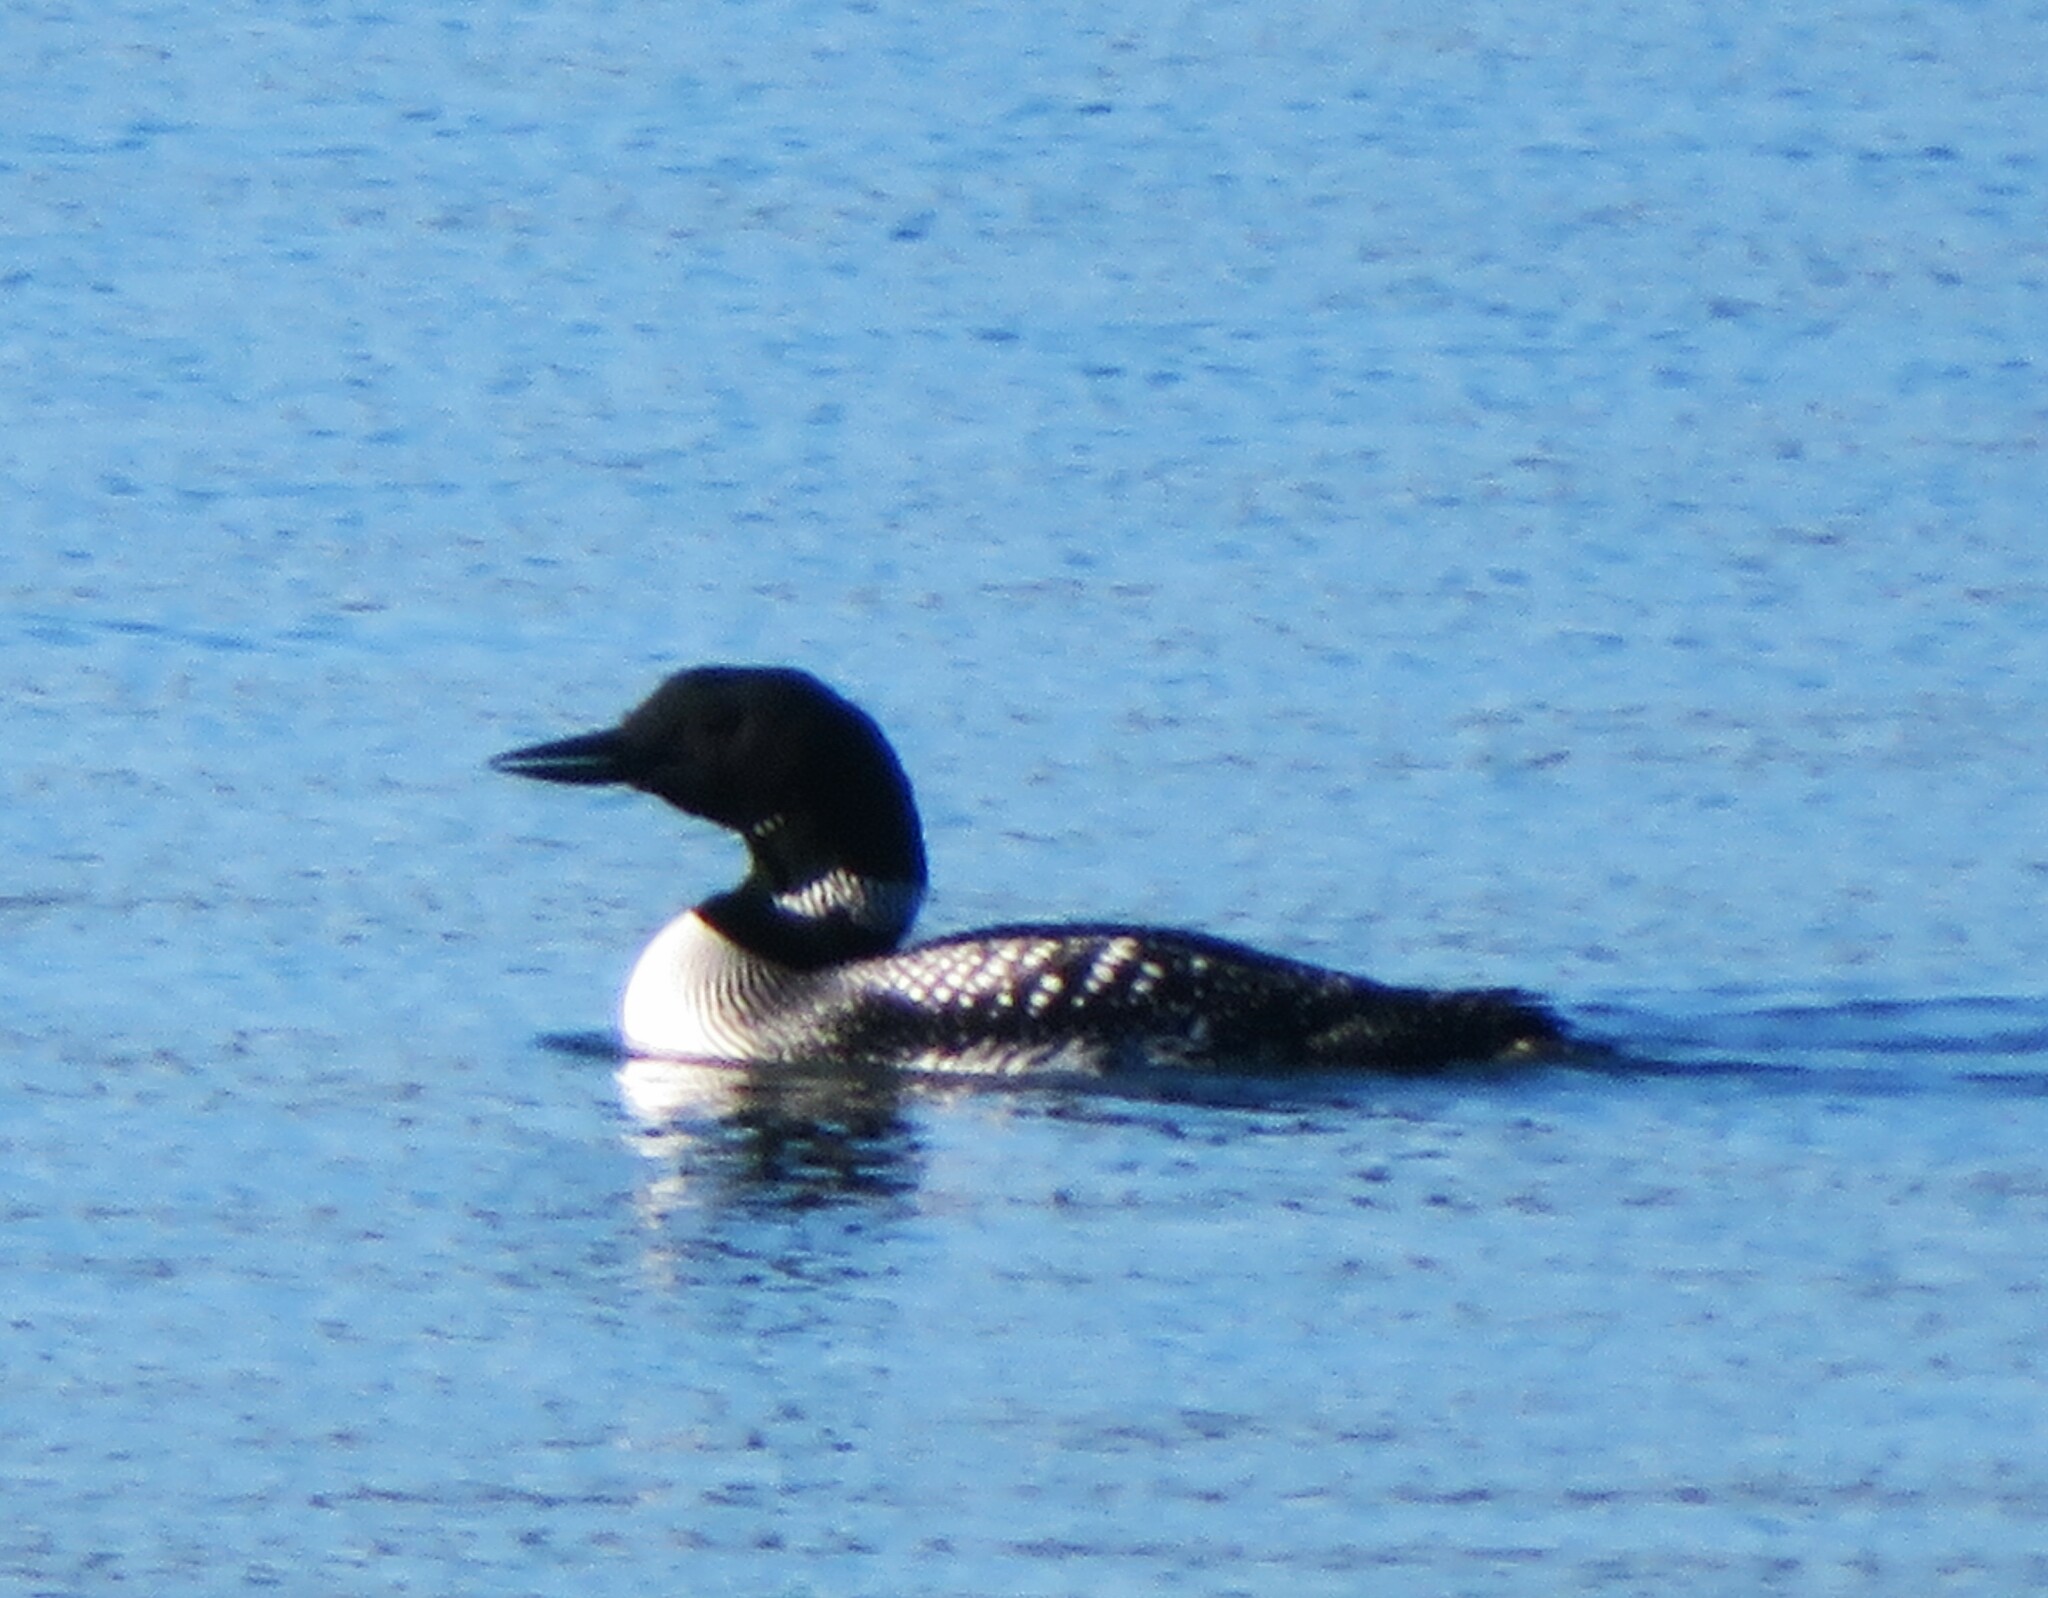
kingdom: Animalia
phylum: Chordata
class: Aves
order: Gaviiformes
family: Gaviidae
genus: Gavia
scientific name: Gavia immer
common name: Common loon
